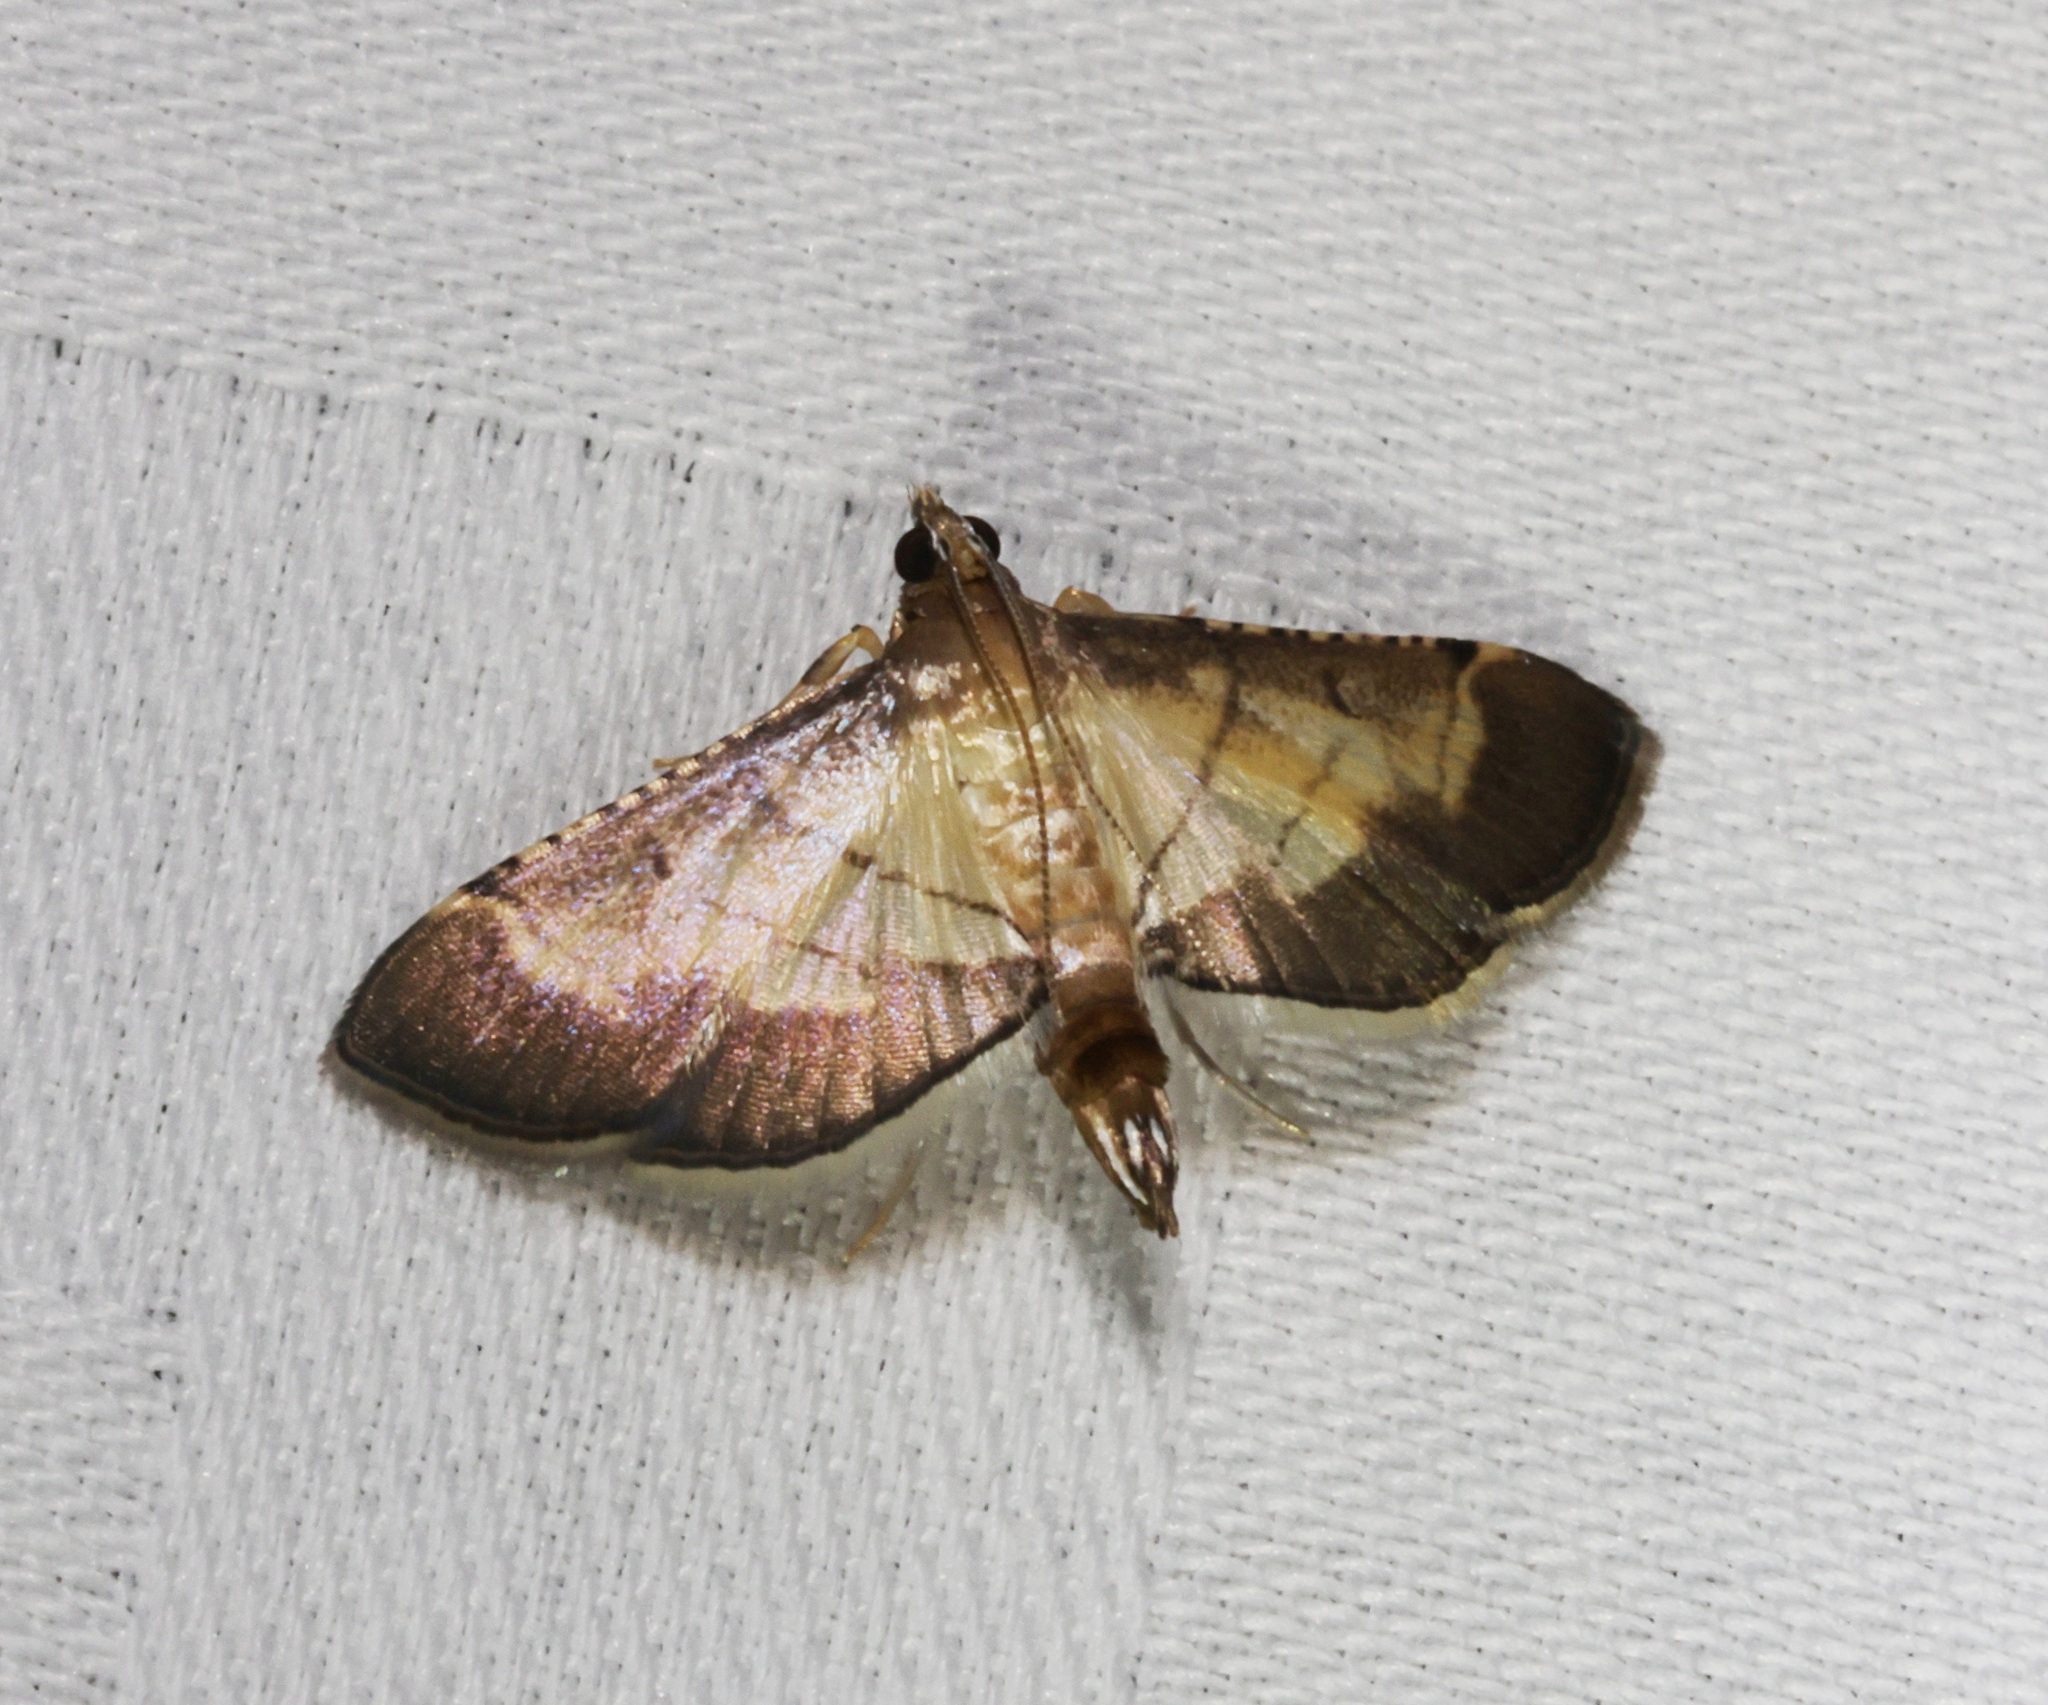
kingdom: Animalia
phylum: Arthropoda
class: Insecta
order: Lepidoptera
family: Crambidae
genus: Cnaphalocrocis
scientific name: Cnaphalocrocis trebiusalis
